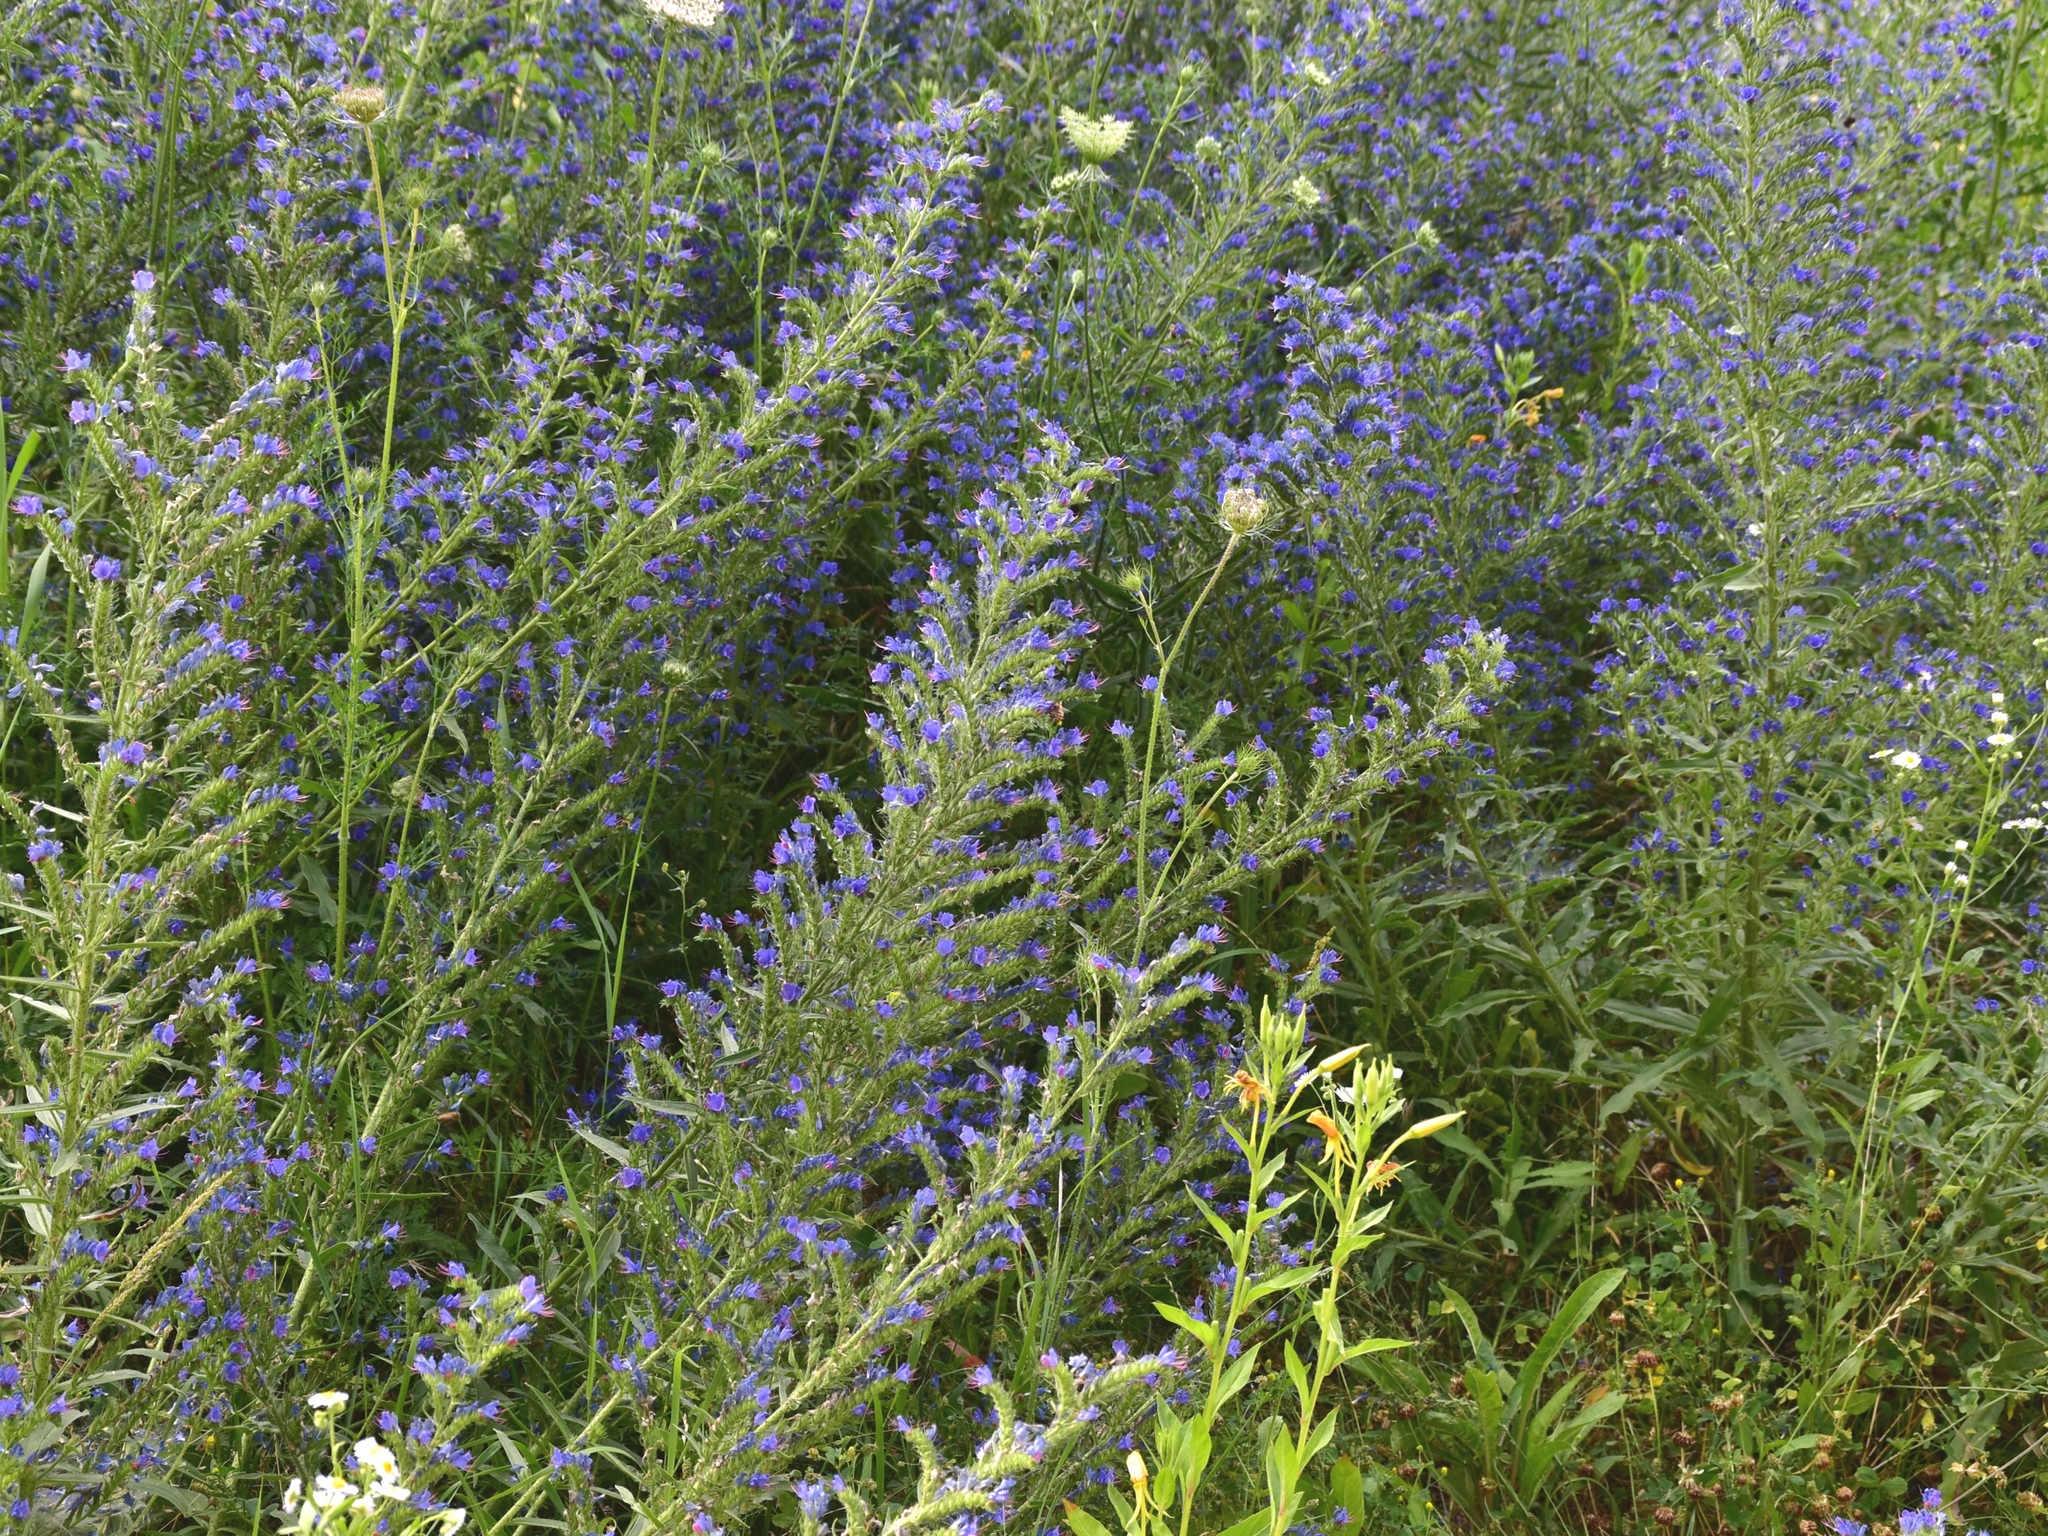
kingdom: Plantae
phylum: Tracheophyta
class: Magnoliopsida
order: Boraginales
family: Boraginaceae
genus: Echium
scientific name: Echium vulgare
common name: Common viper's bugloss
